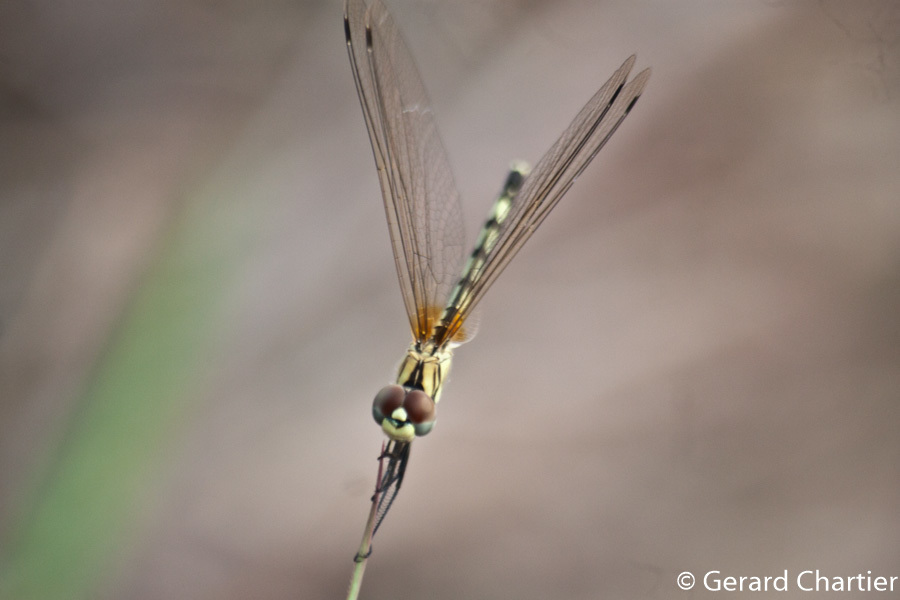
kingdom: Animalia
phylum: Arthropoda
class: Insecta
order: Odonata
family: Libellulidae
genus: Trithemis
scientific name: Trithemis pallidinervis
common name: Dancing dropwing
